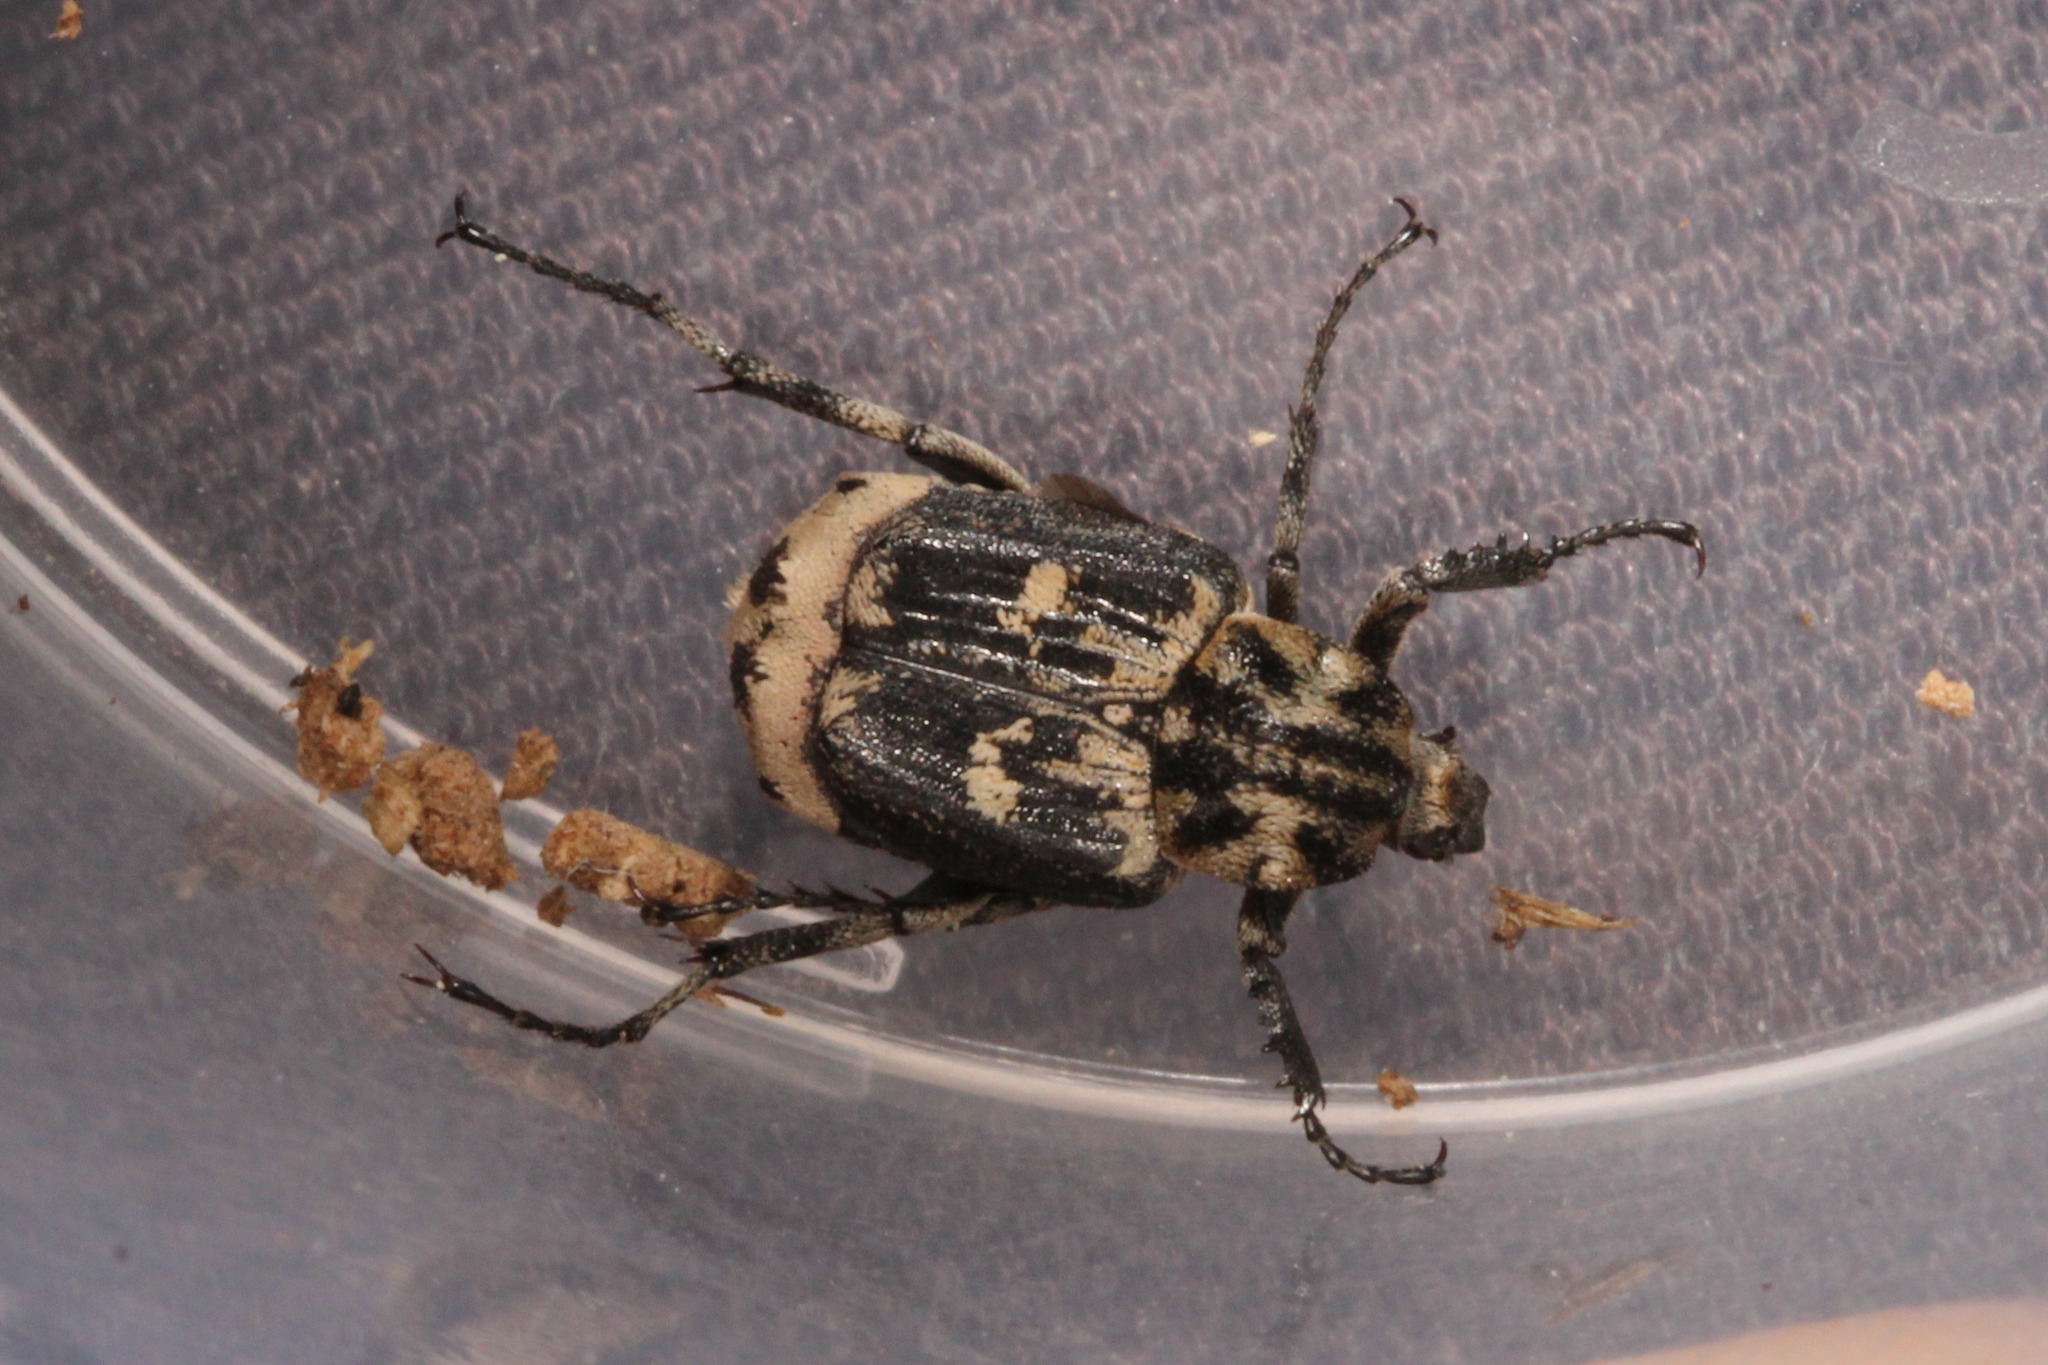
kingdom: Animalia
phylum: Arthropoda
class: Insecta
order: Coleoptera
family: Scarabaeidae
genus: Valgus
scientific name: Valgus hemipterus
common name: Bug flower chafer
